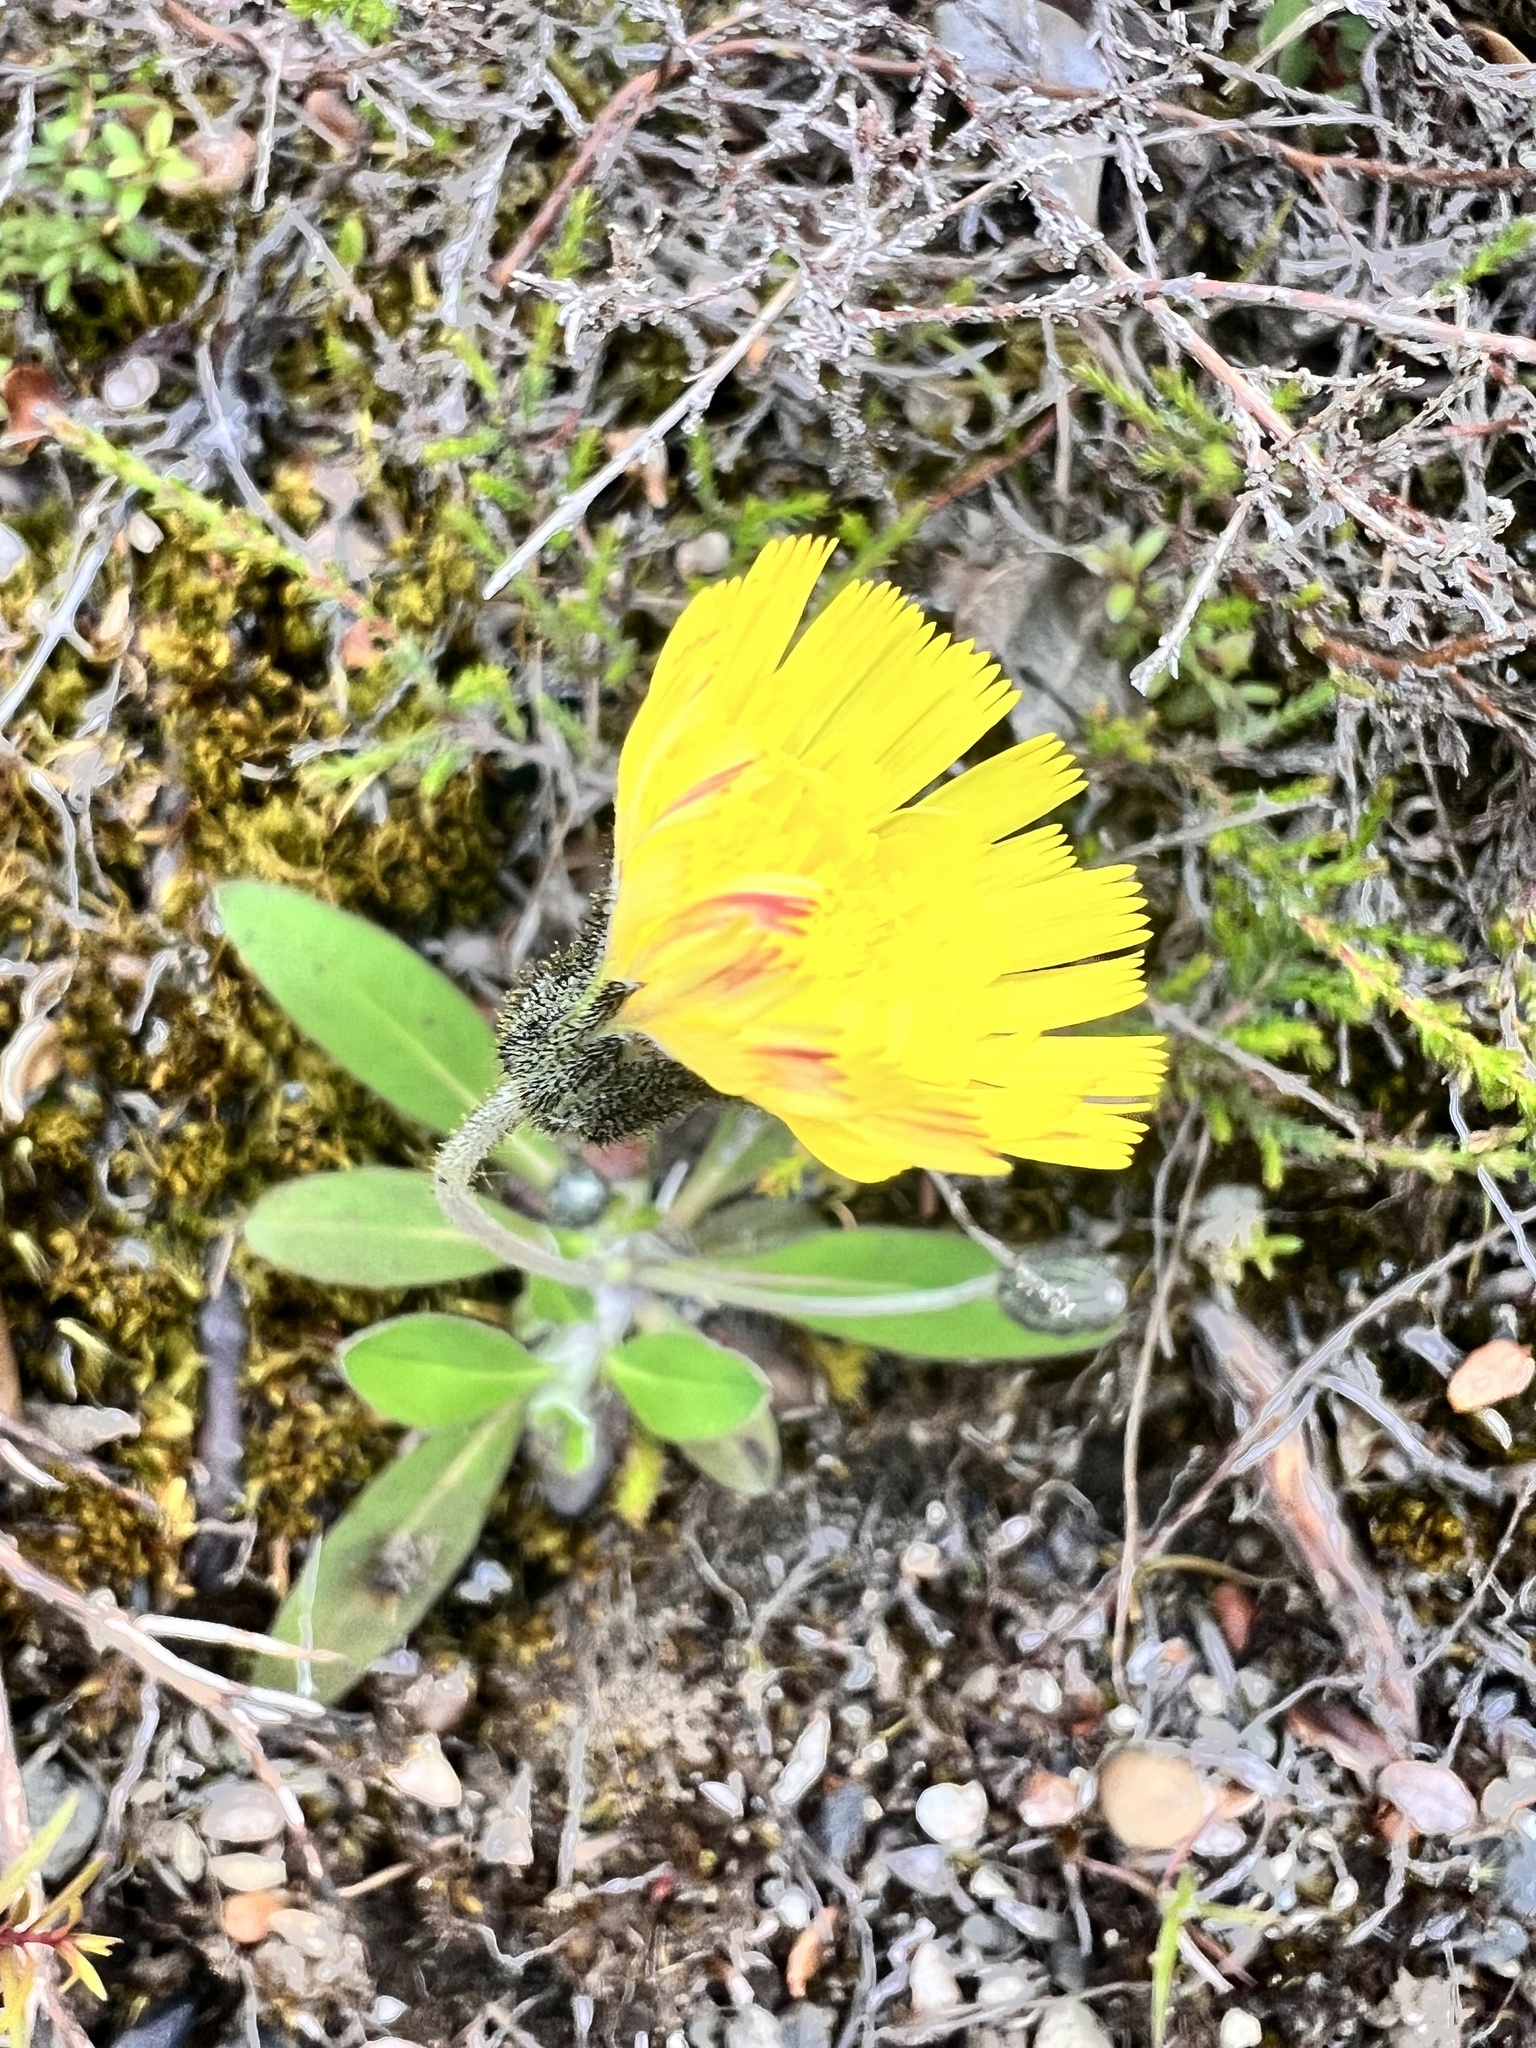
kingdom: Plantae
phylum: Tracheophyta
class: Magnoliopsida
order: Asterales
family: Asteraceae
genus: Pilosella
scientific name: Pilosella officinarum
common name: Mouse-ear hawkweed
